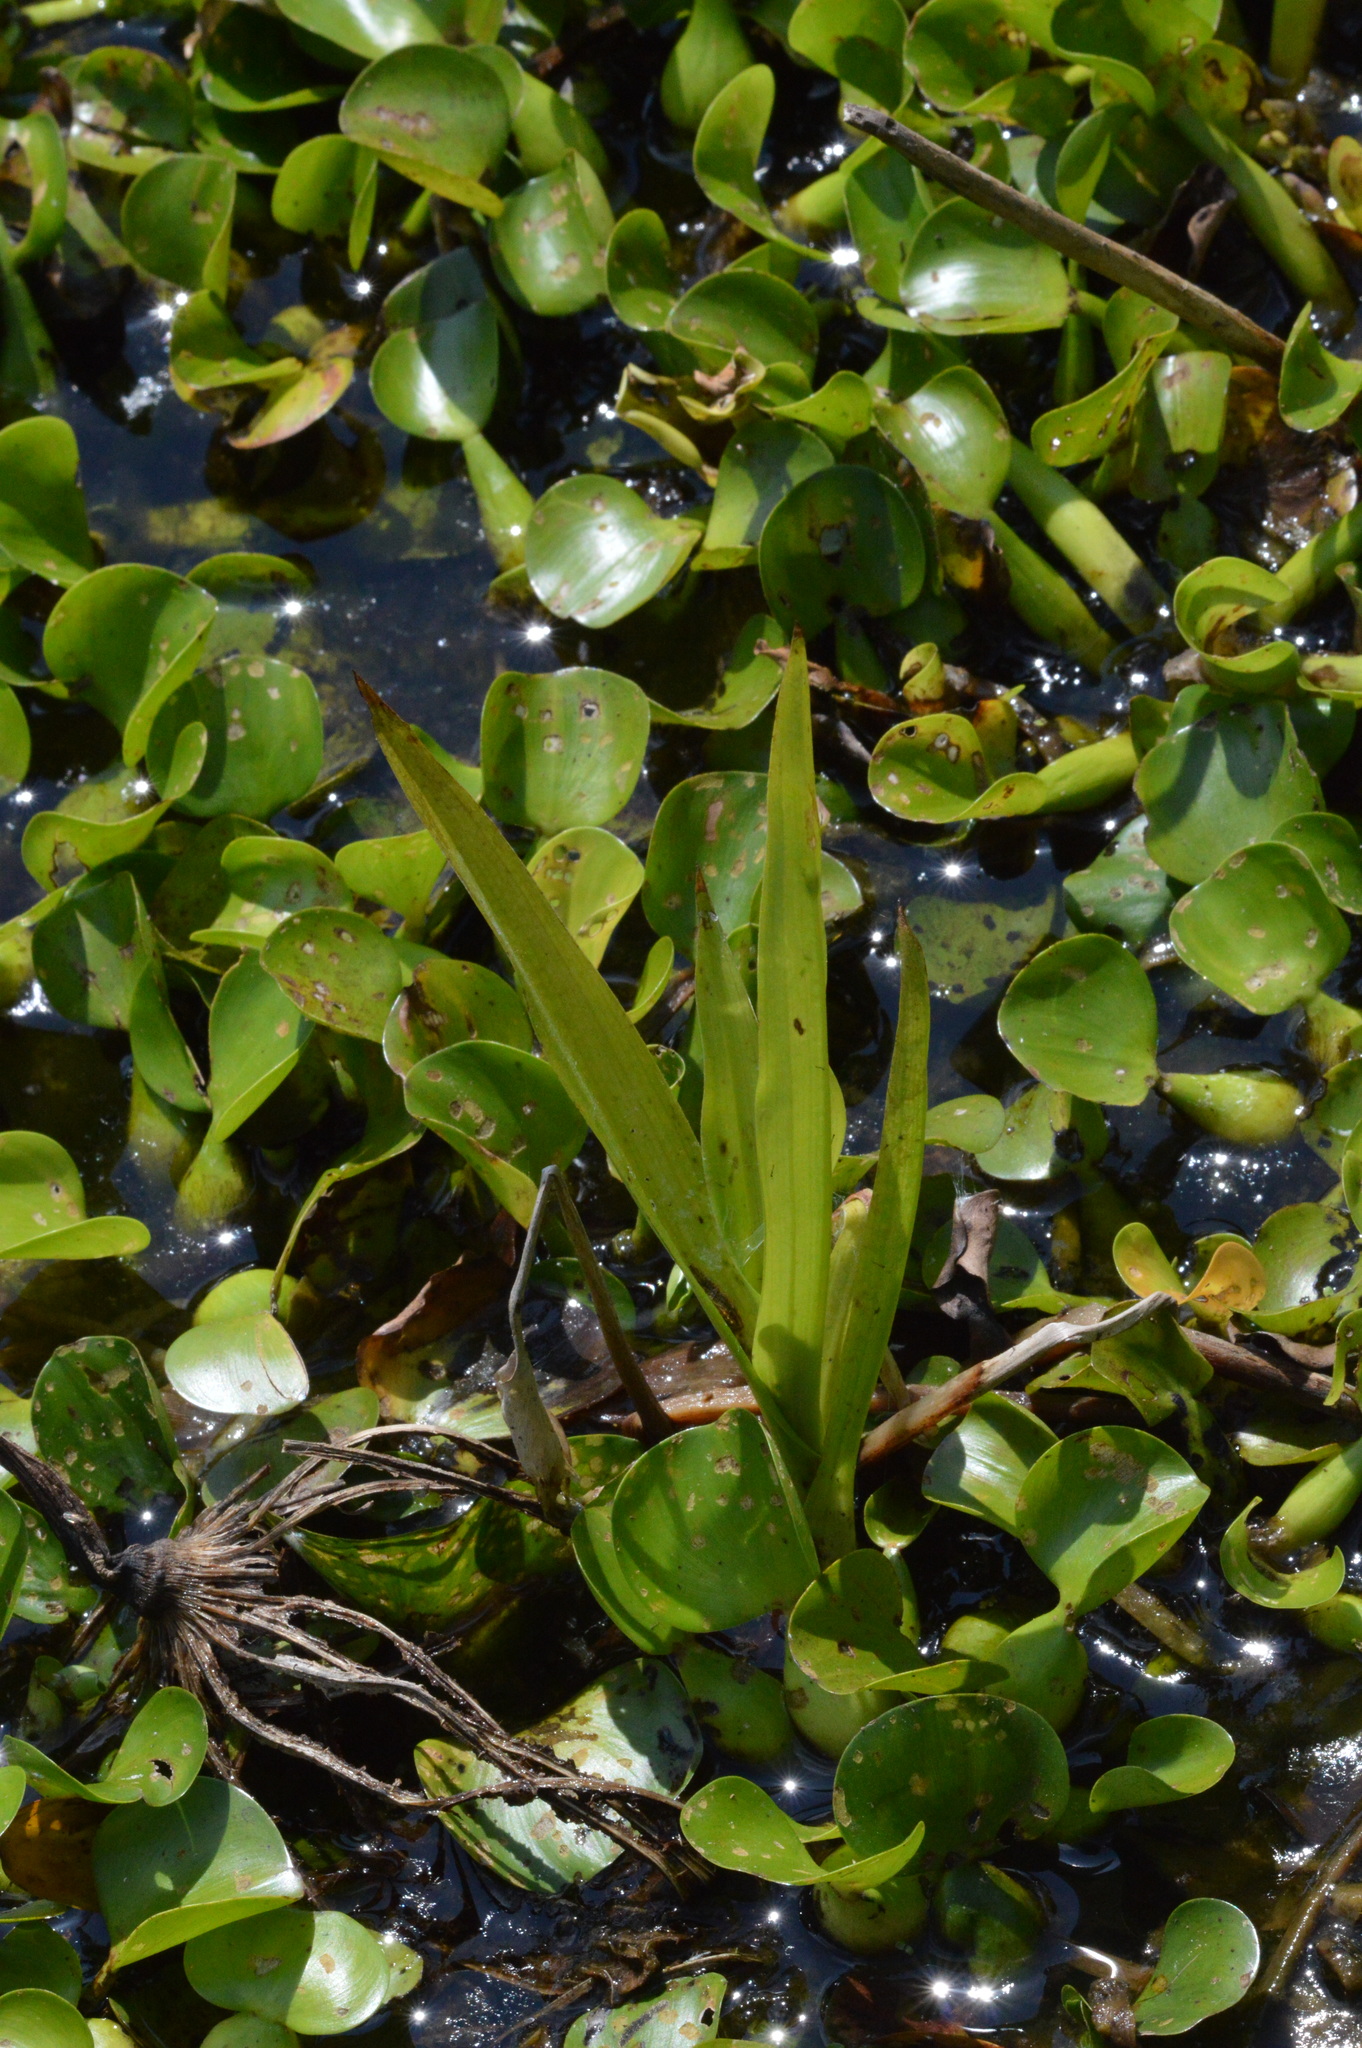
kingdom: Plantae
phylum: Tracheophyta
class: Liliopsida
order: Asparagales
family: Orchidaceae
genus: Habenaria
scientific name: Habenaria repens
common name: Water orchid
